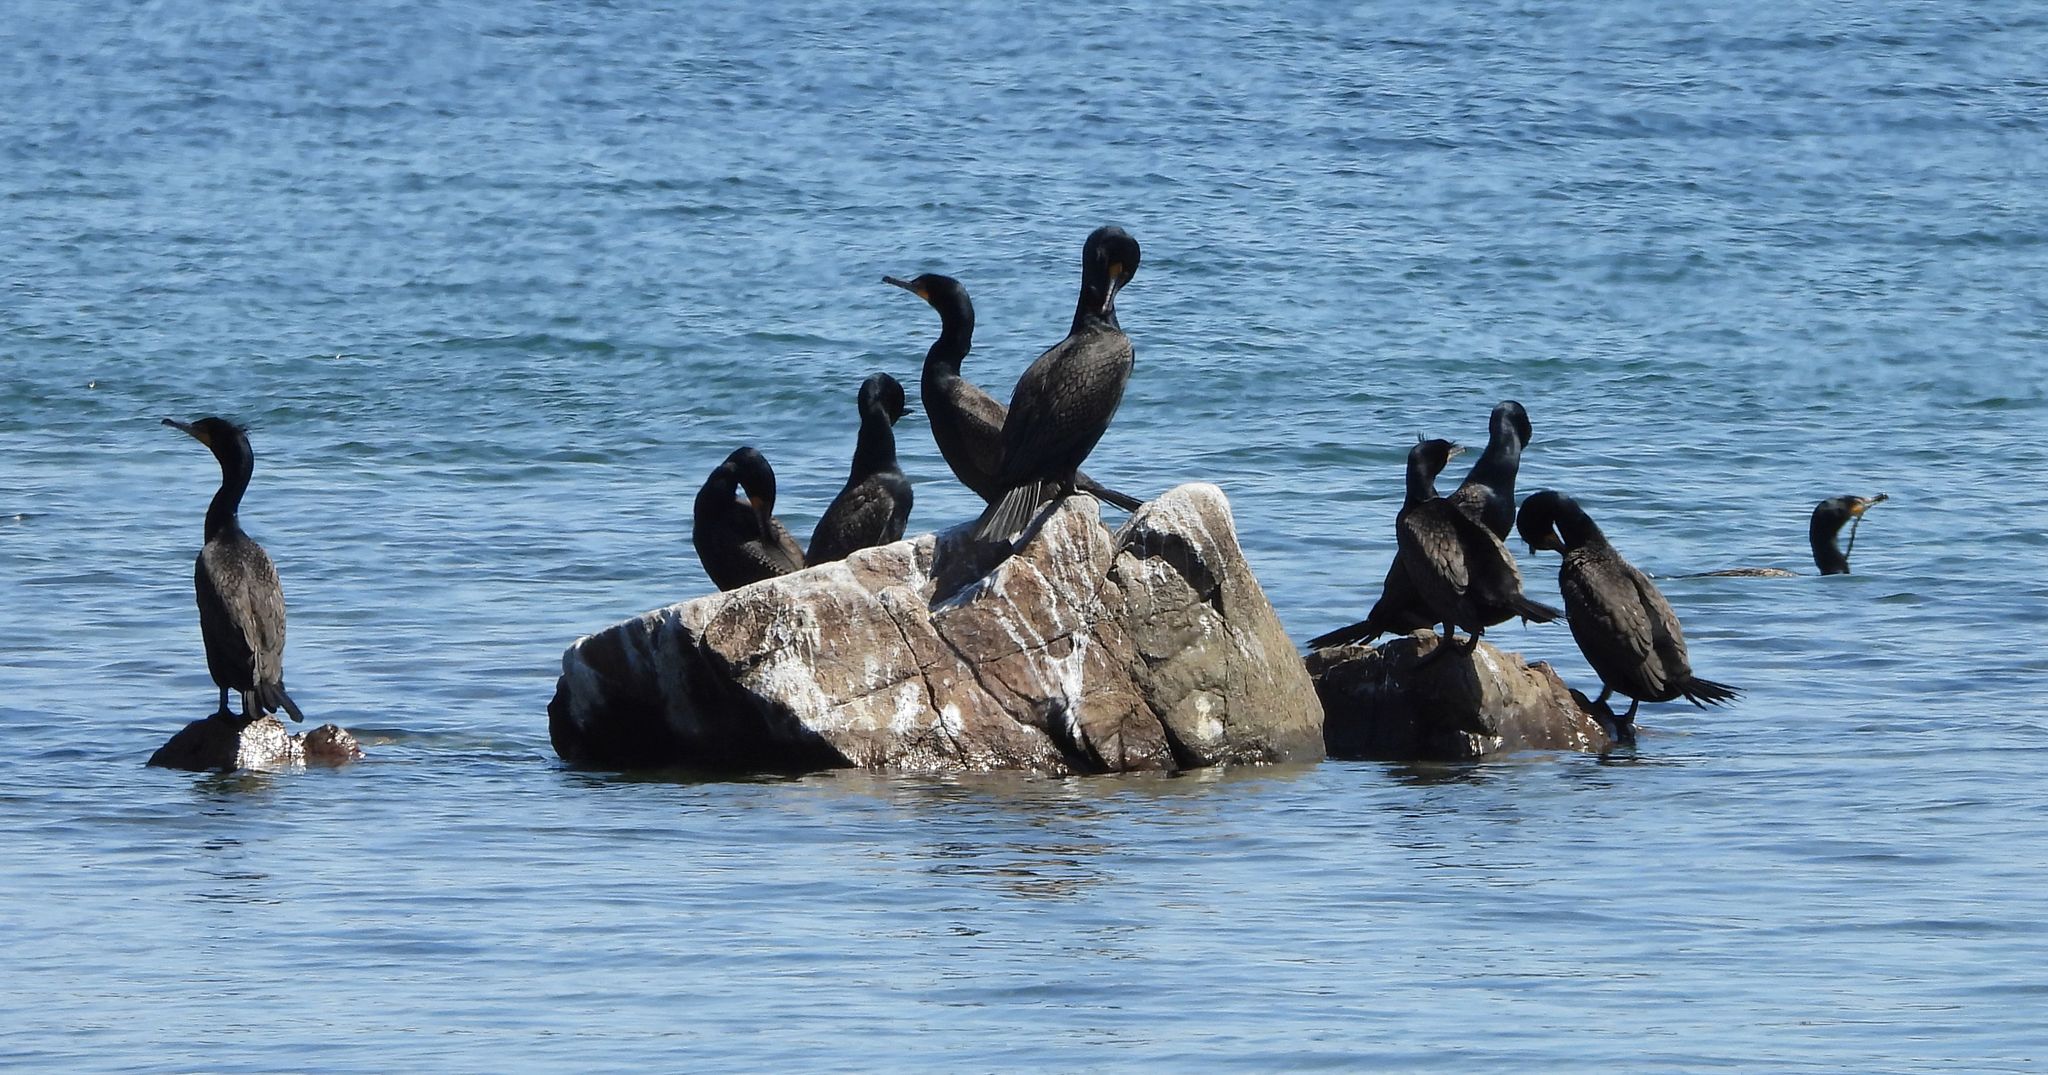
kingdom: Animalia
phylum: Chordata
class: Aves
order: Suliformes
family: Phalacrocoracidae
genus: Phalacrocorax
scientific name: Phalacrocorax auritus
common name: Double-crested cormorant
